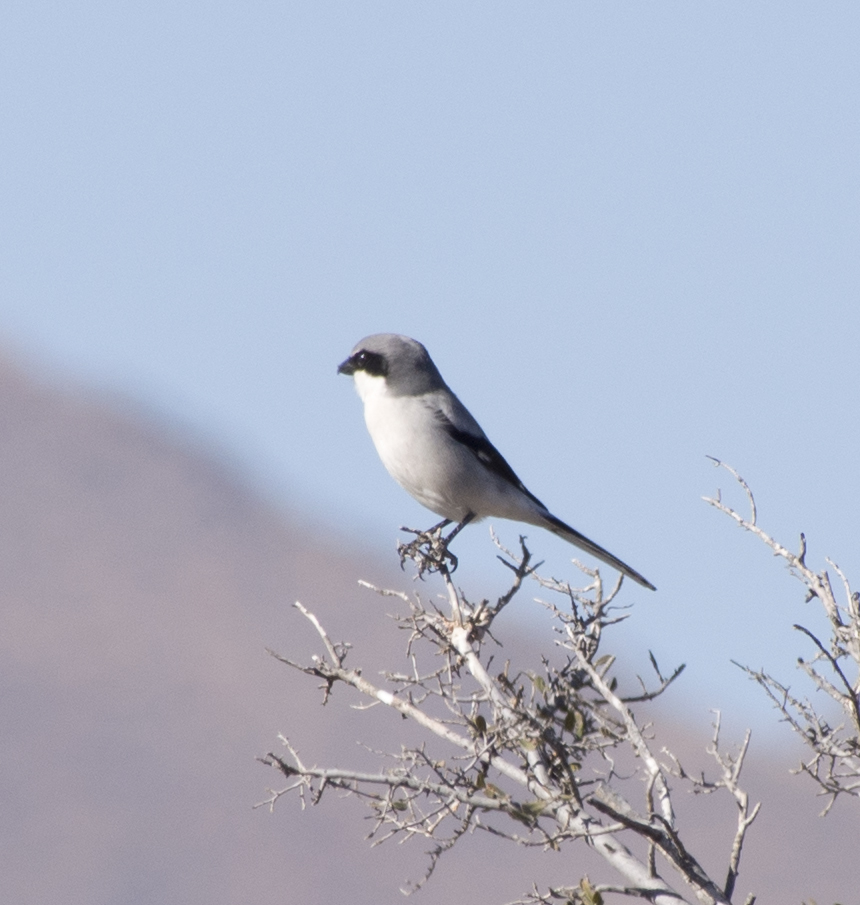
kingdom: Animalia
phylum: Chordata
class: Aves
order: Passeriformes
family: Laniidae
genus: Lanius
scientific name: Lanius ludovicianus
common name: Loggerhead shrike
